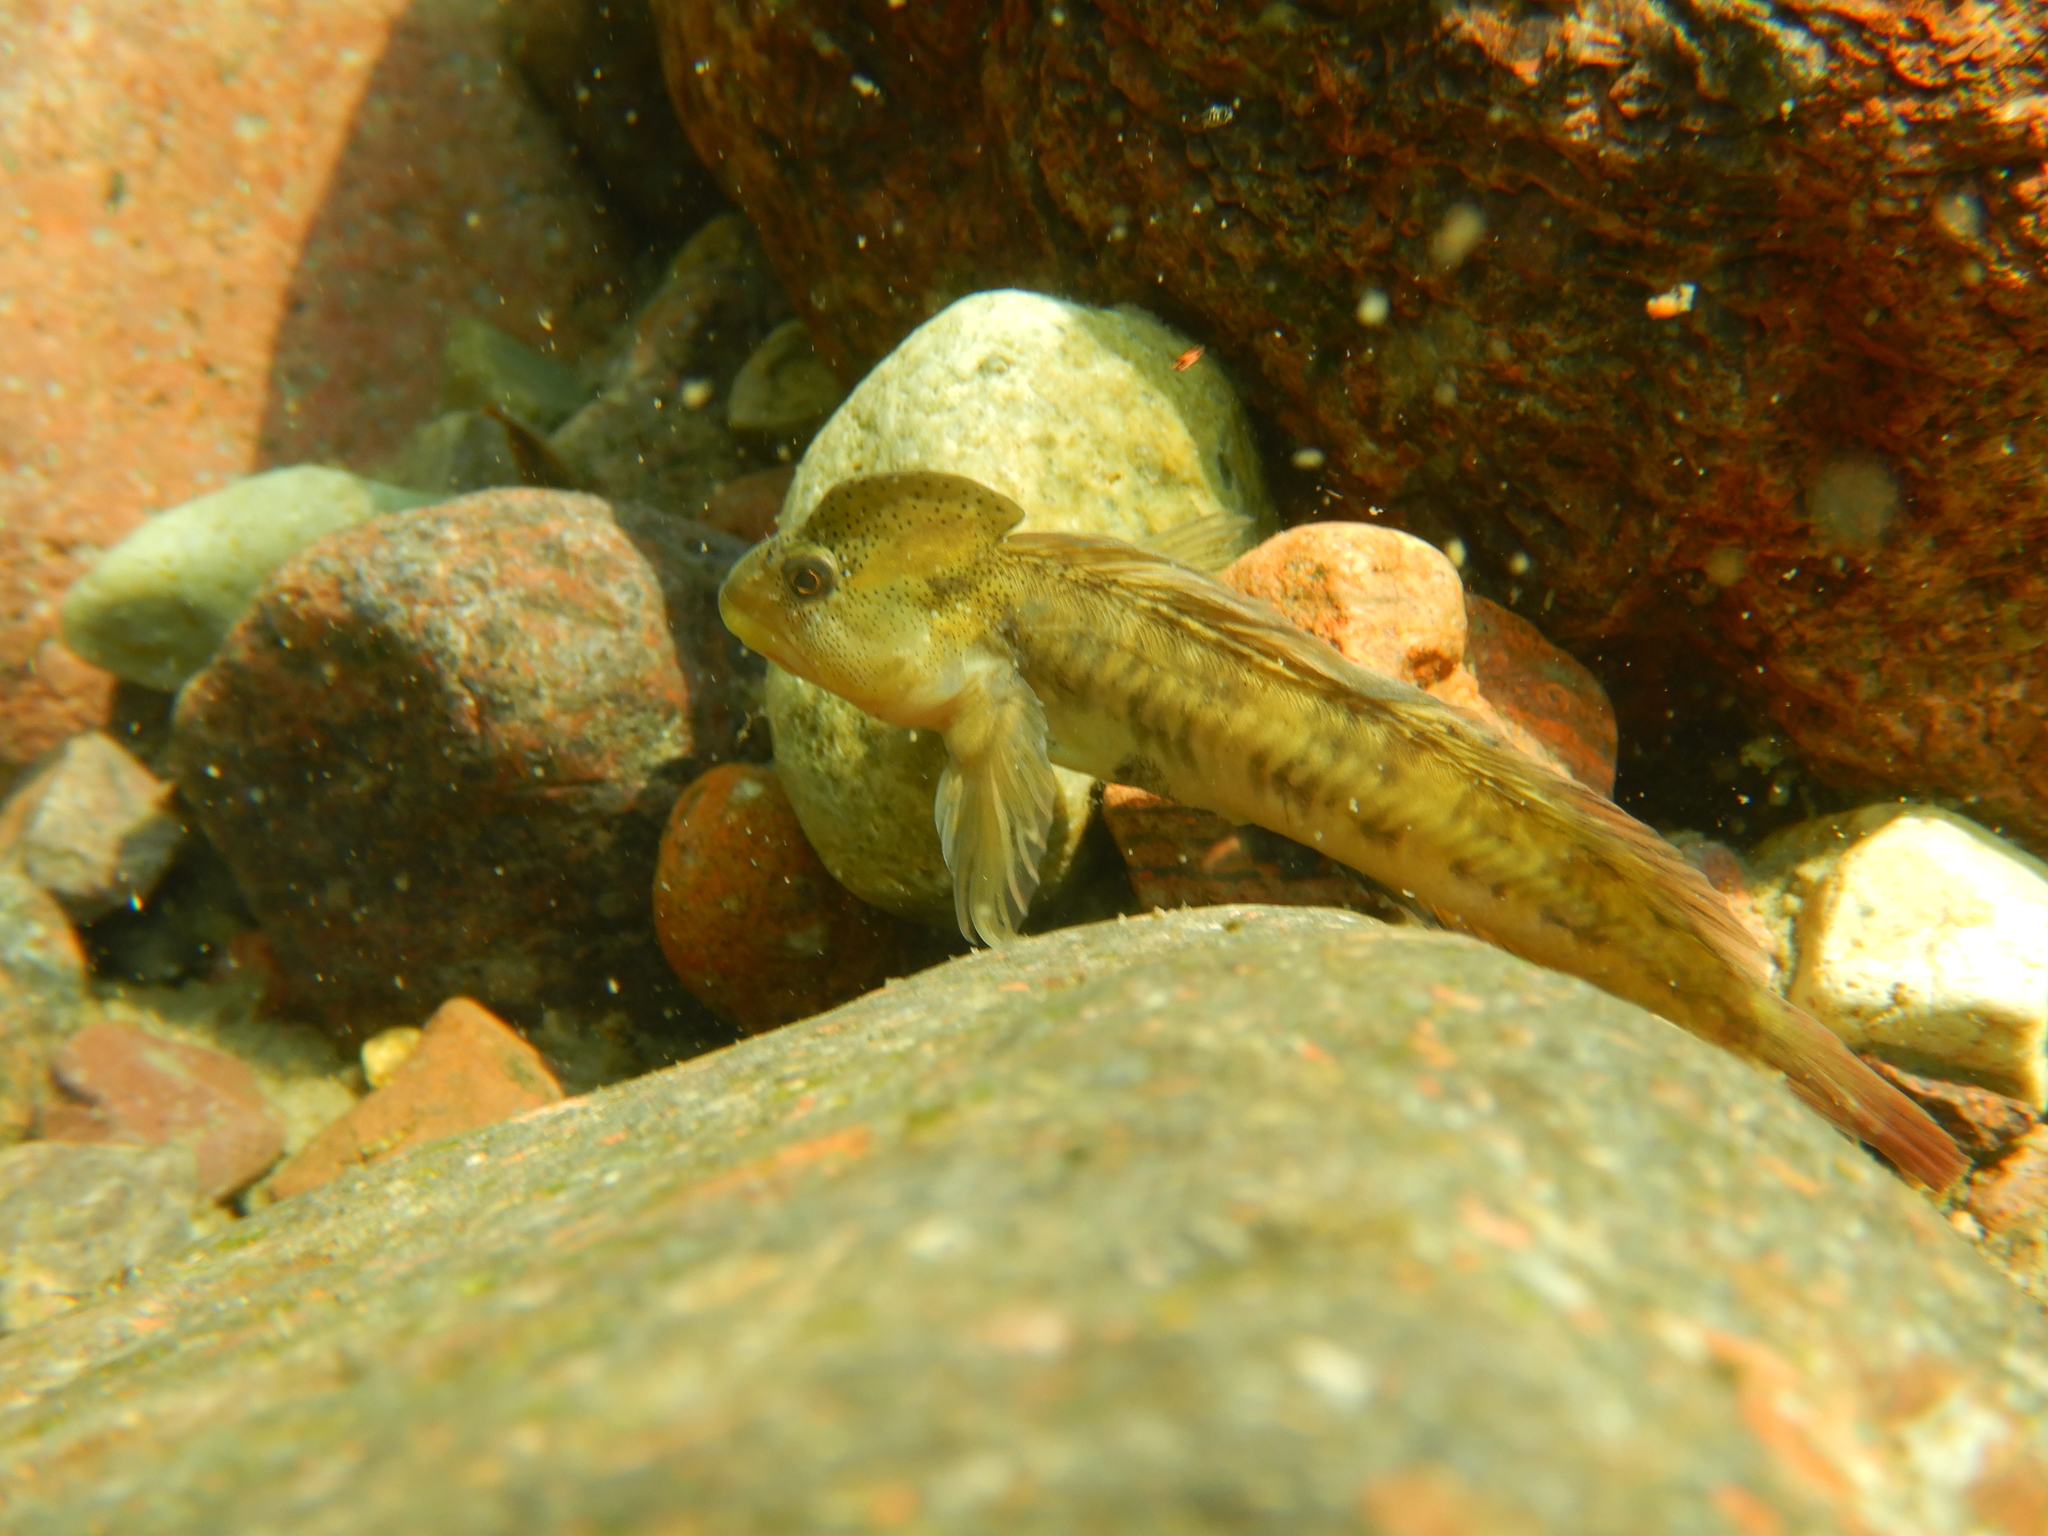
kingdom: Animalia
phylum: Chordata
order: Perciformes
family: Blenniidae
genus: Salaria
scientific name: Salaria fluviatilis
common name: Freshwater blenny
